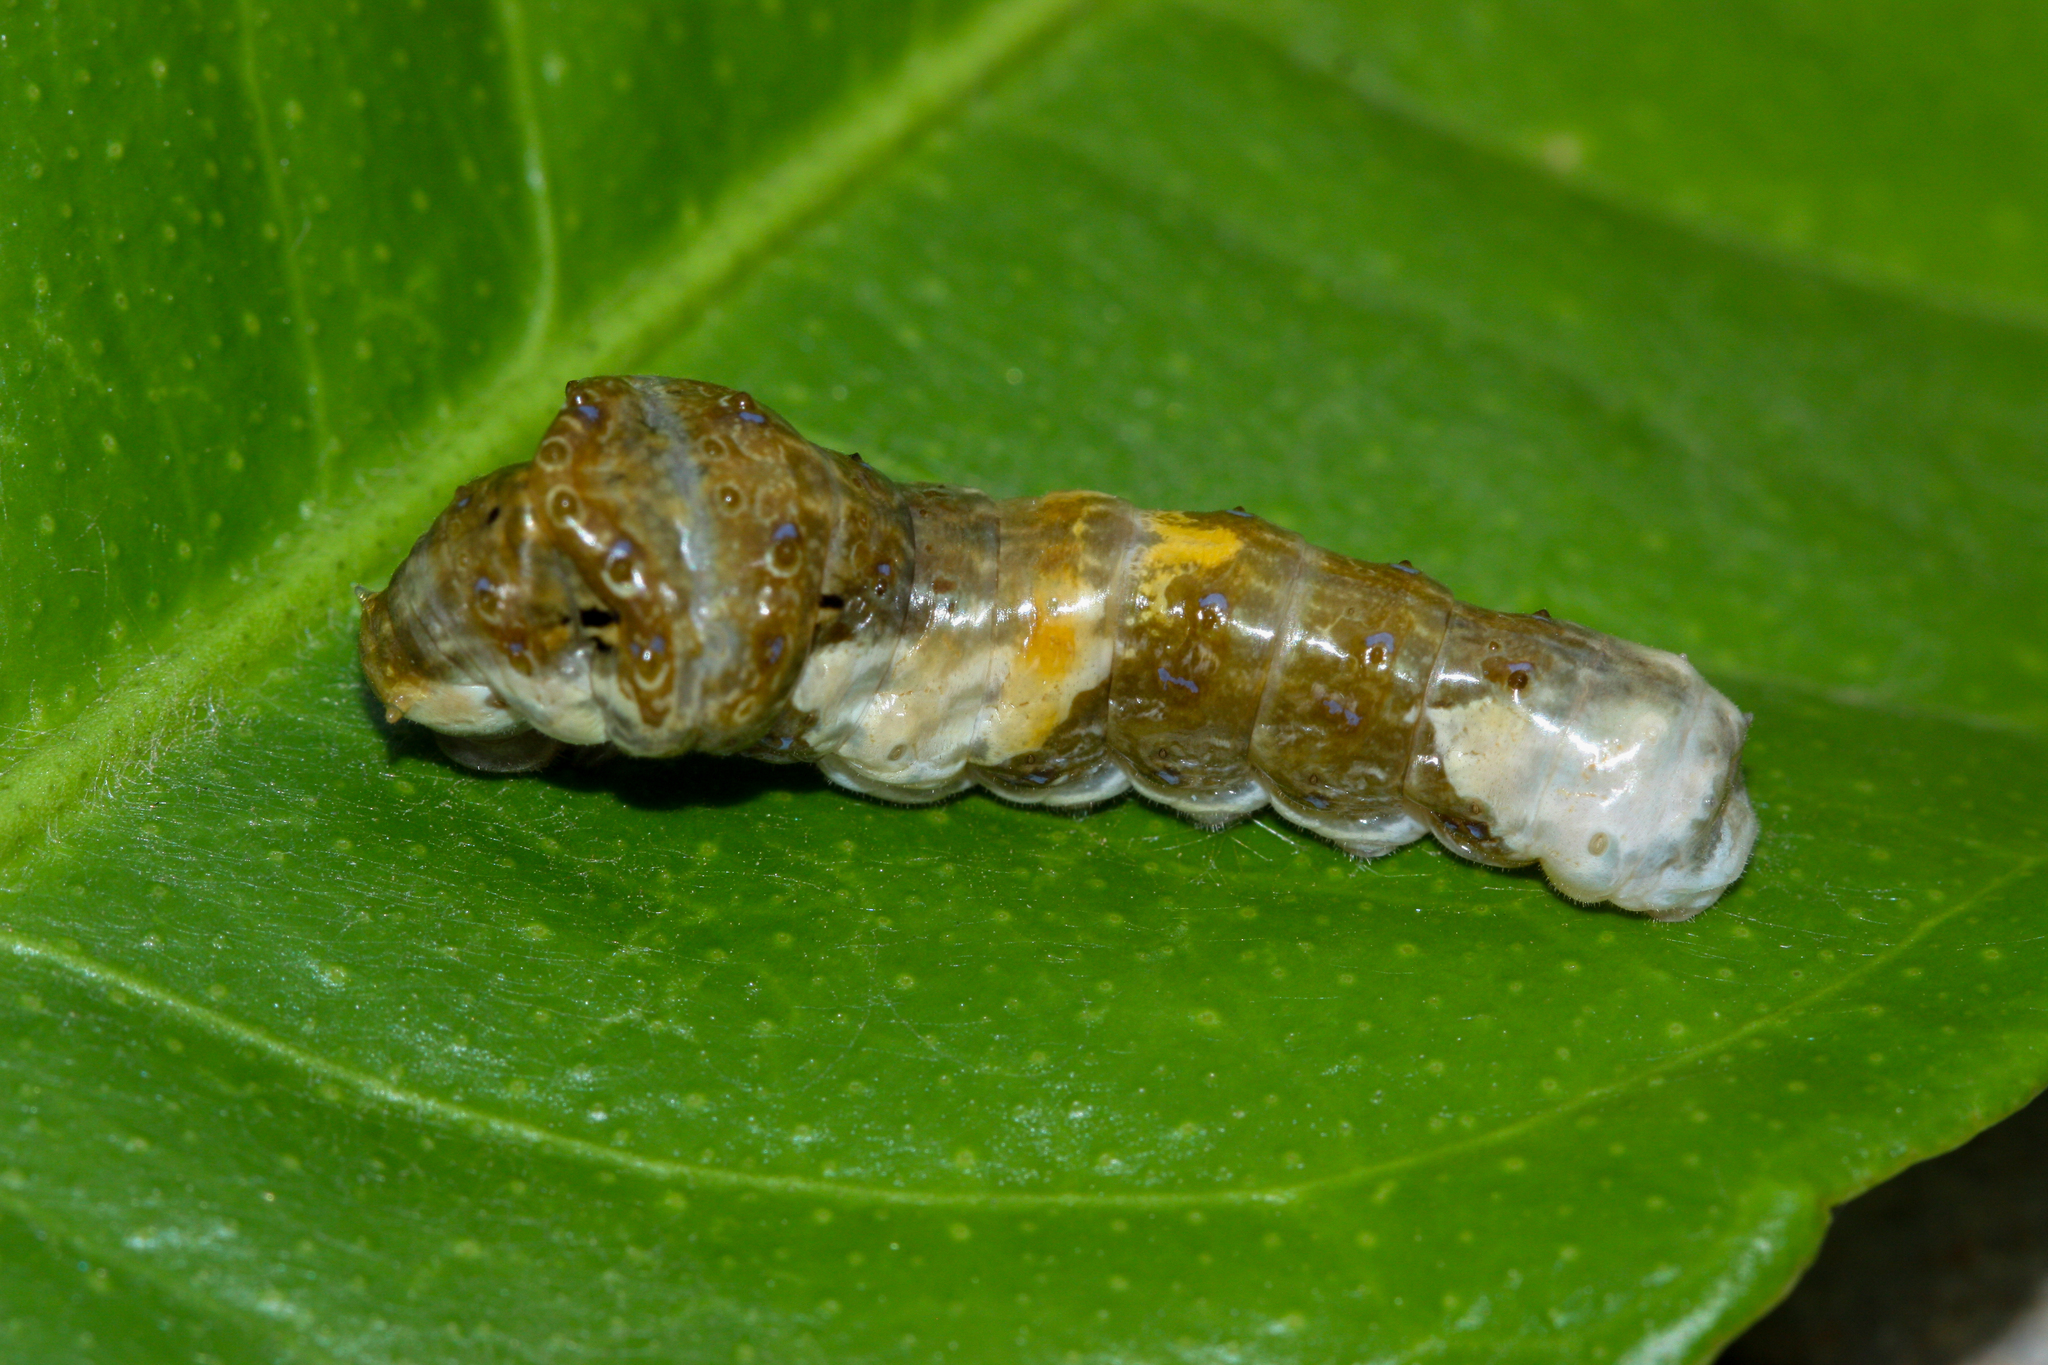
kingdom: Animalia
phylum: Arthropoda
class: Insecta
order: Lepidoptera
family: Papilionidae
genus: Papilio
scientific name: Papilio rumiko
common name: Western giant swallowtail
